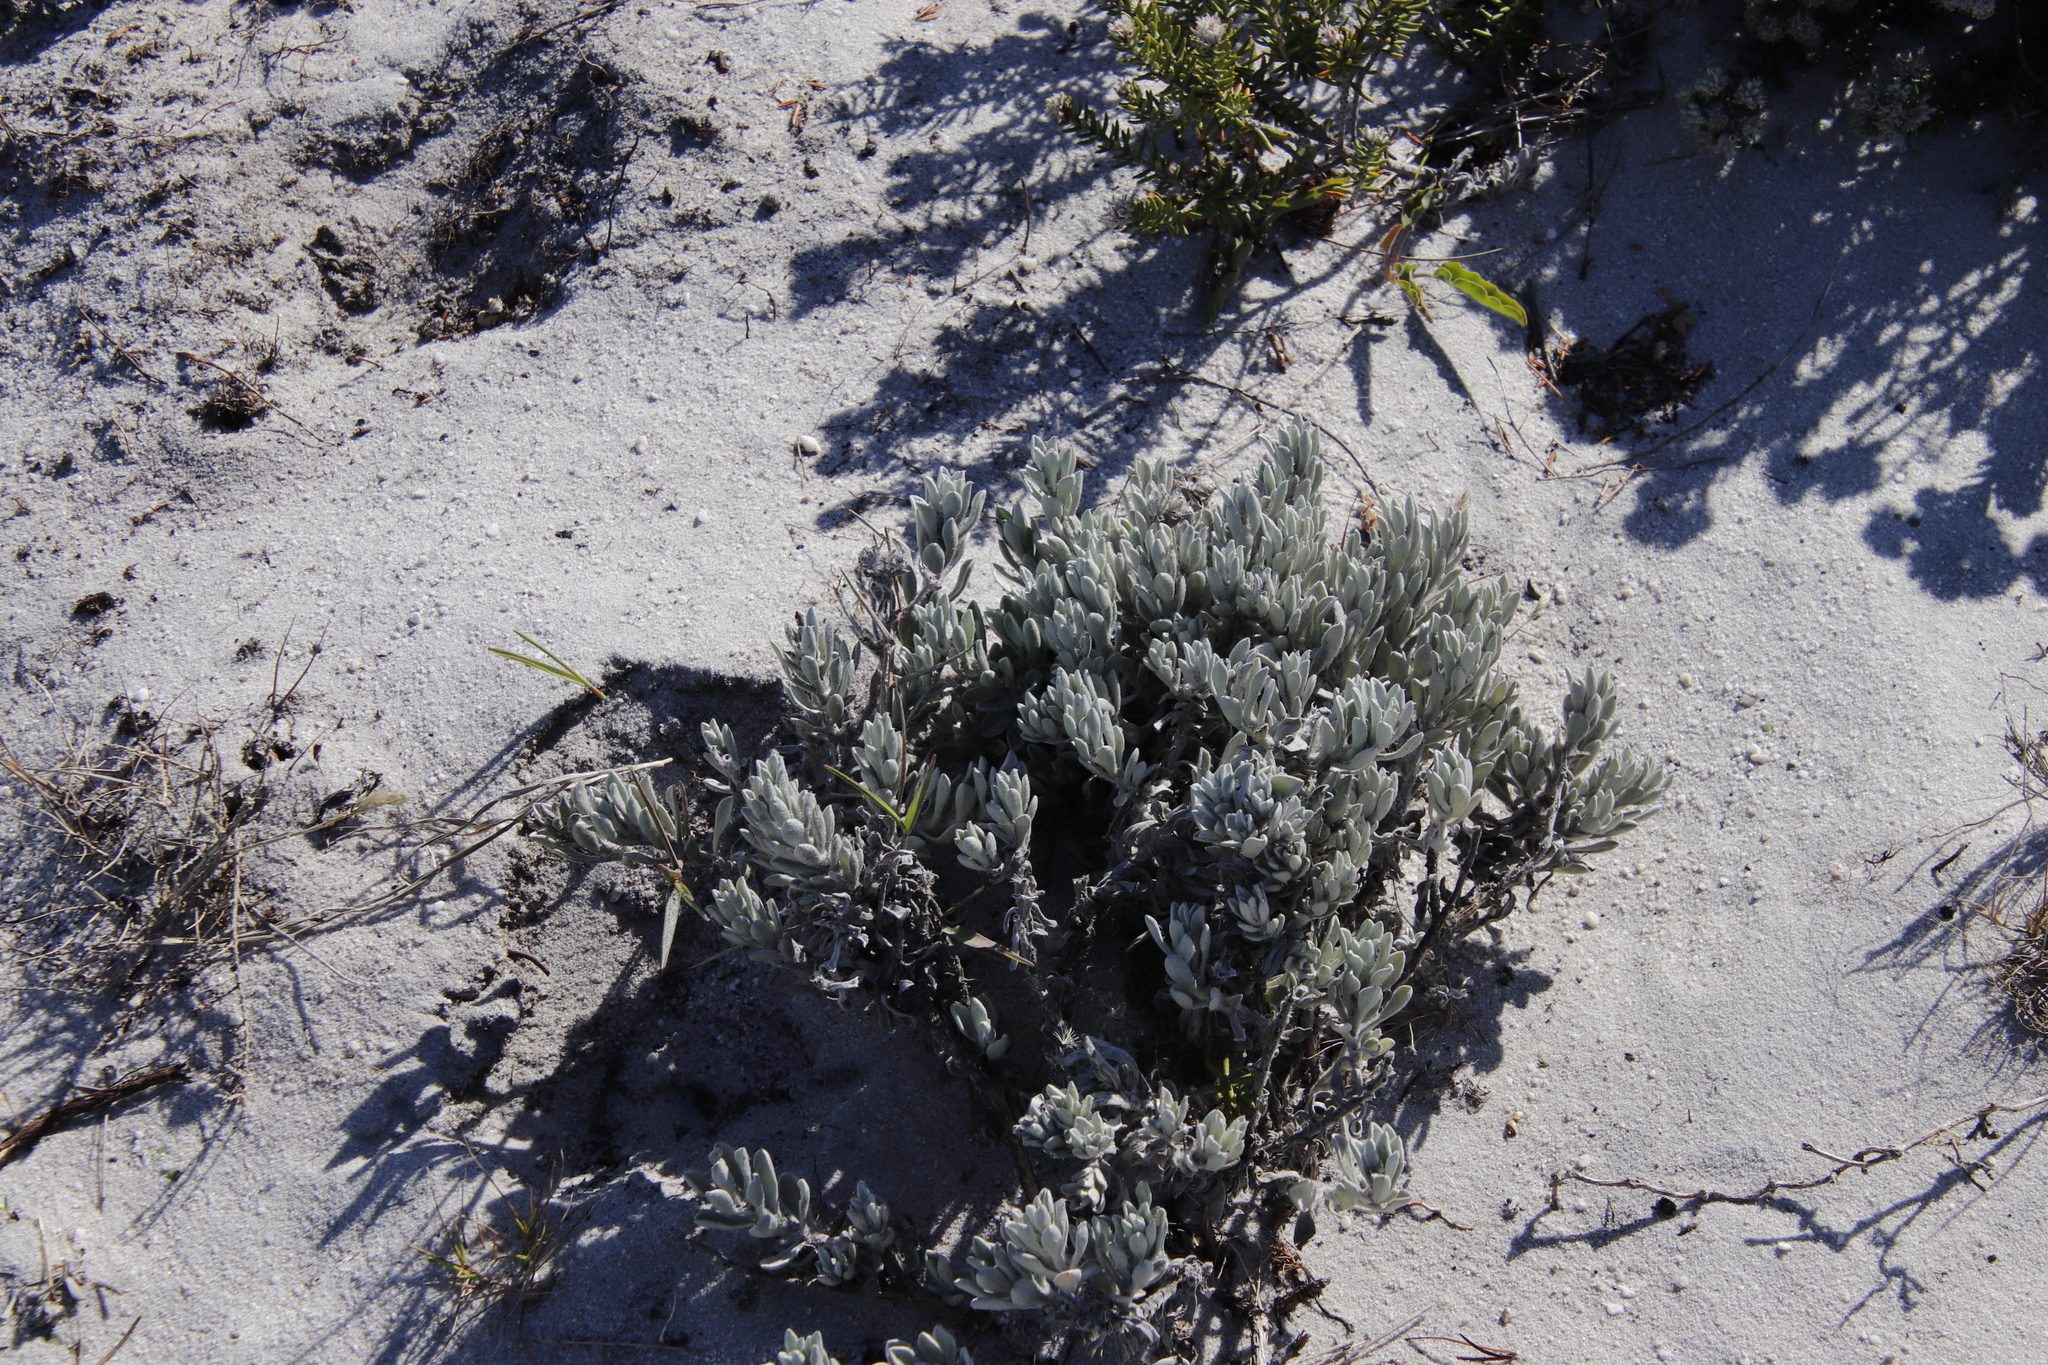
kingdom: Plantae
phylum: Tracheophyta
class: Magnoliopsida
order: Asterales
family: Asteraceae
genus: Petalacte
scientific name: Petalacte coronata
